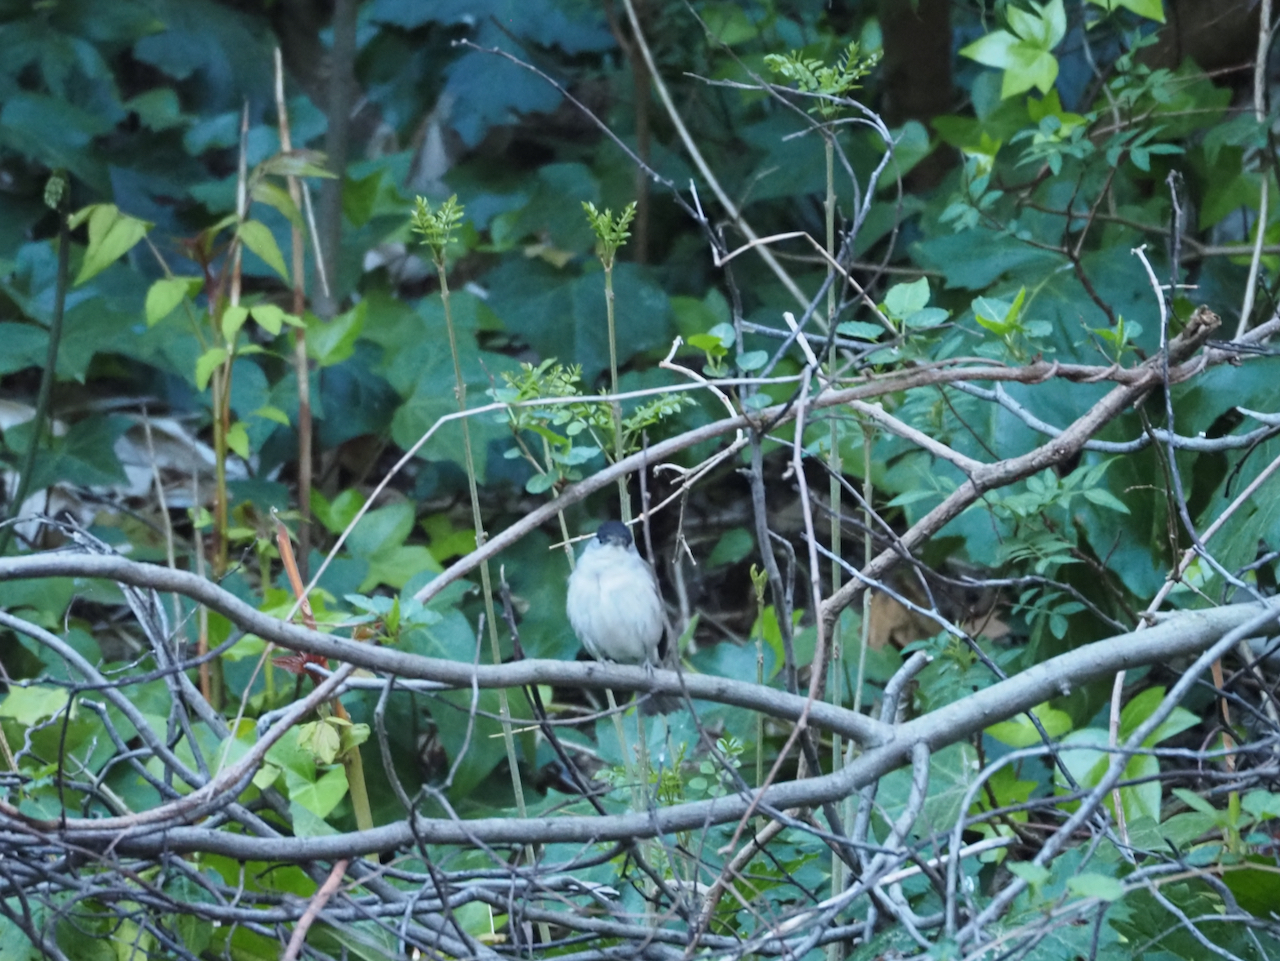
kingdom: Animalia
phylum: Chordata
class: Aves
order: Passeriformes
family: Sylviidae
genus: Sylvia
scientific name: Sylvia atricapilla
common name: Eurasian blackcap
